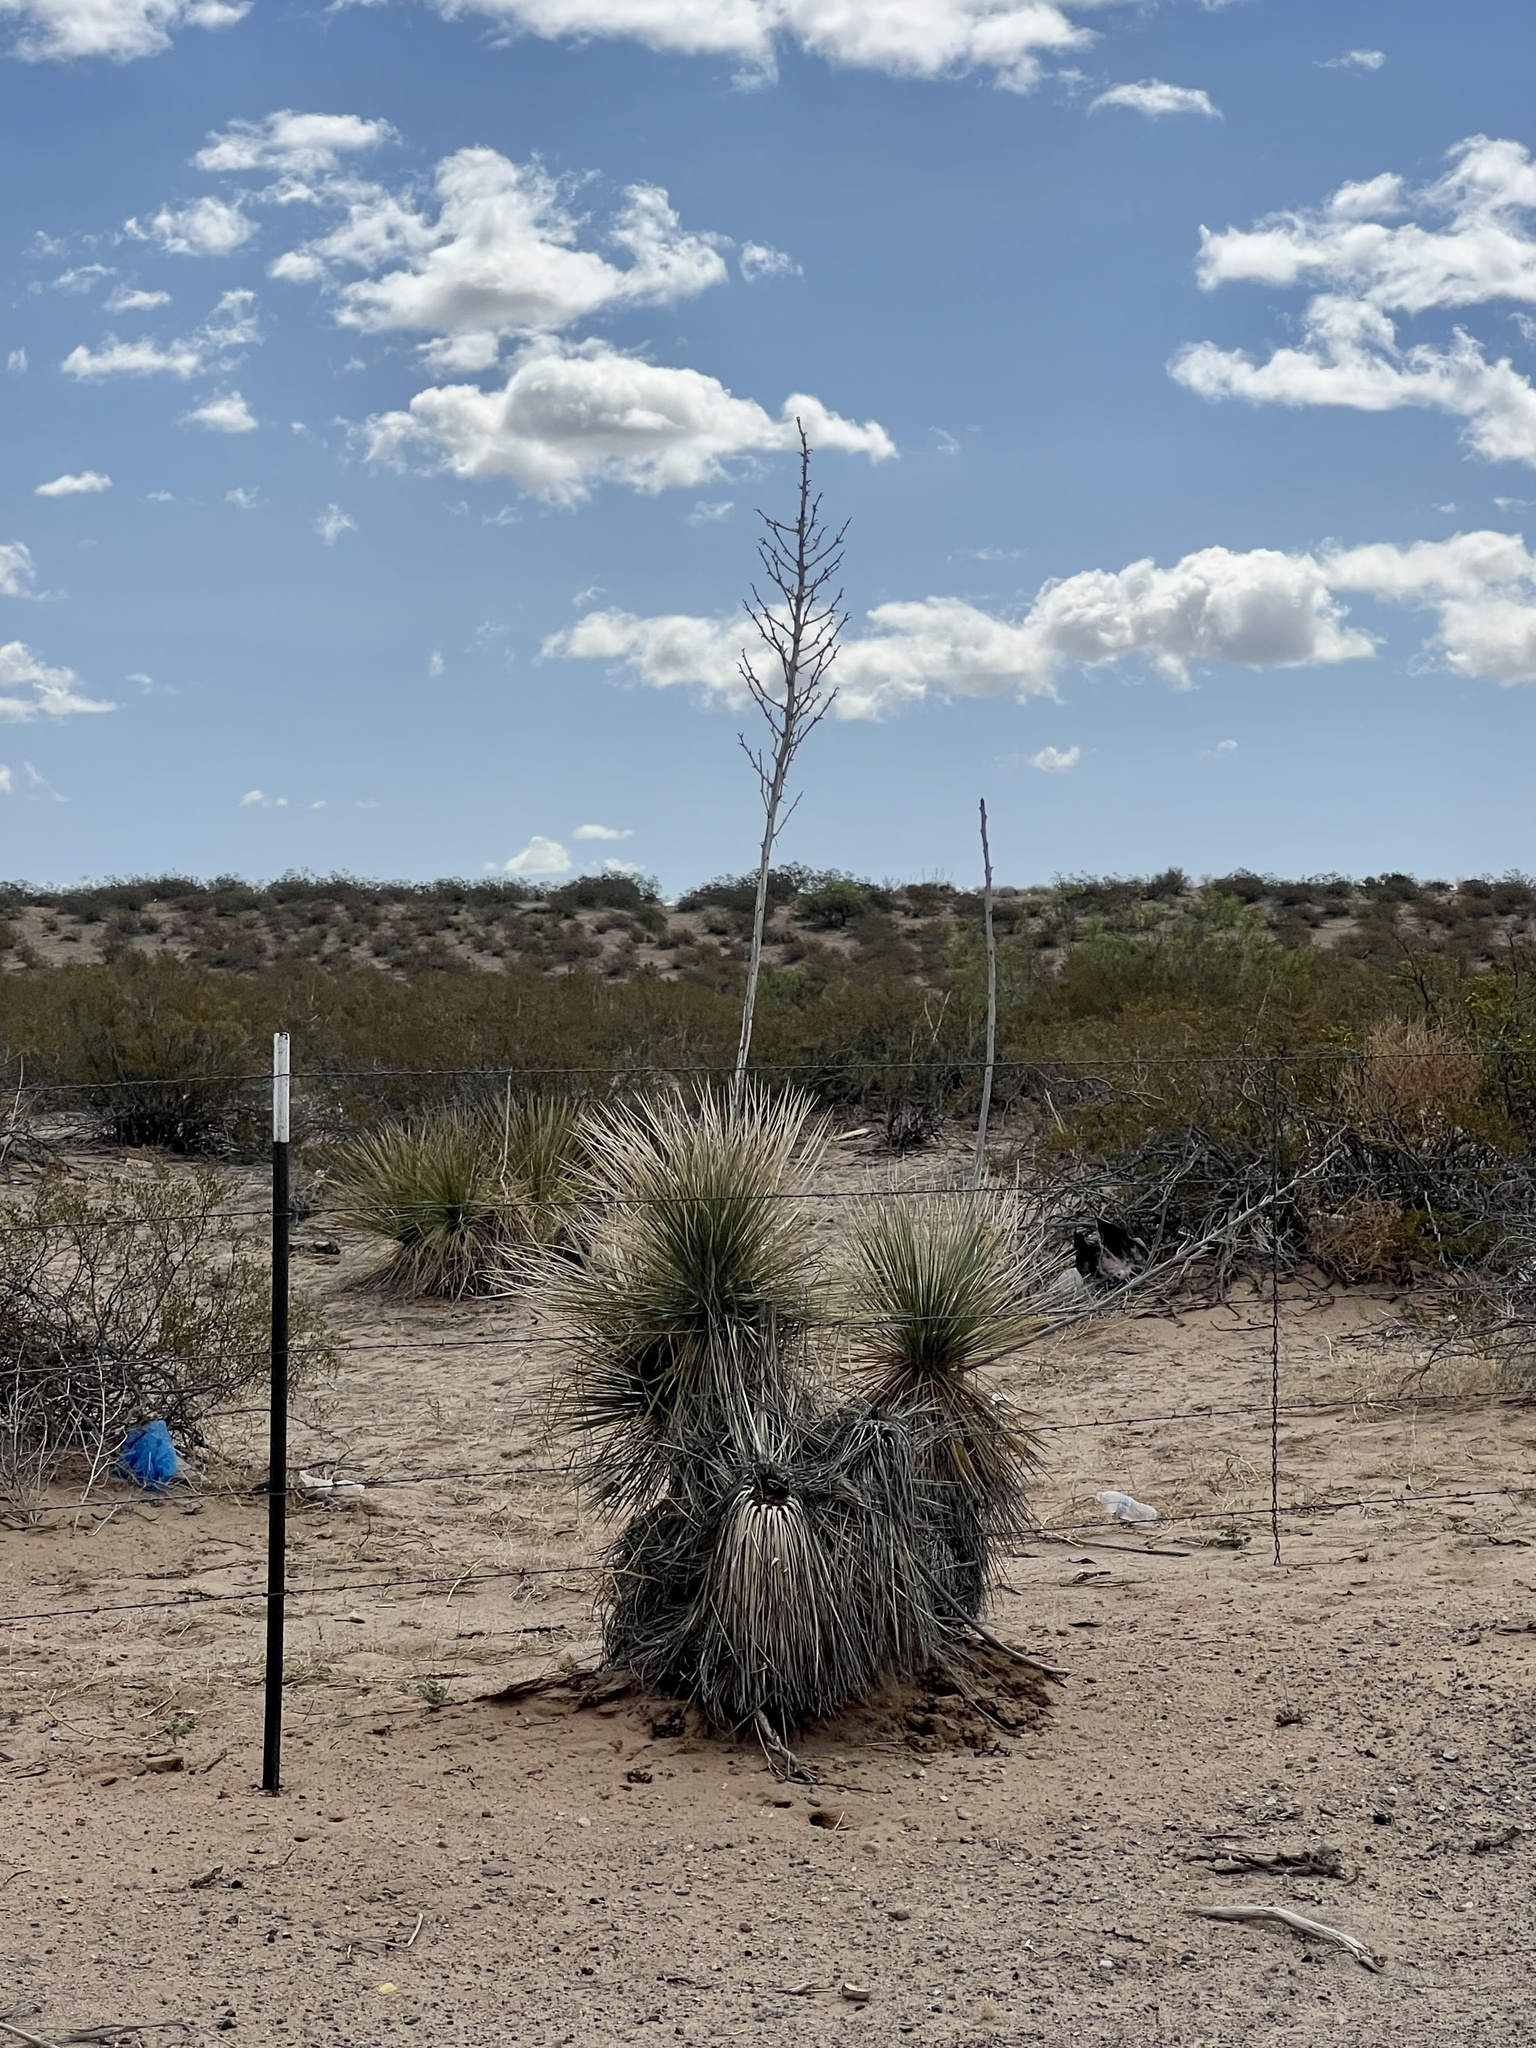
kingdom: Plantae
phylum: Tracheophyta
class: Liliopsida
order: Asparagales
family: Asparagaceae
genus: Yucca
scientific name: Yucca elata
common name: Palmella
